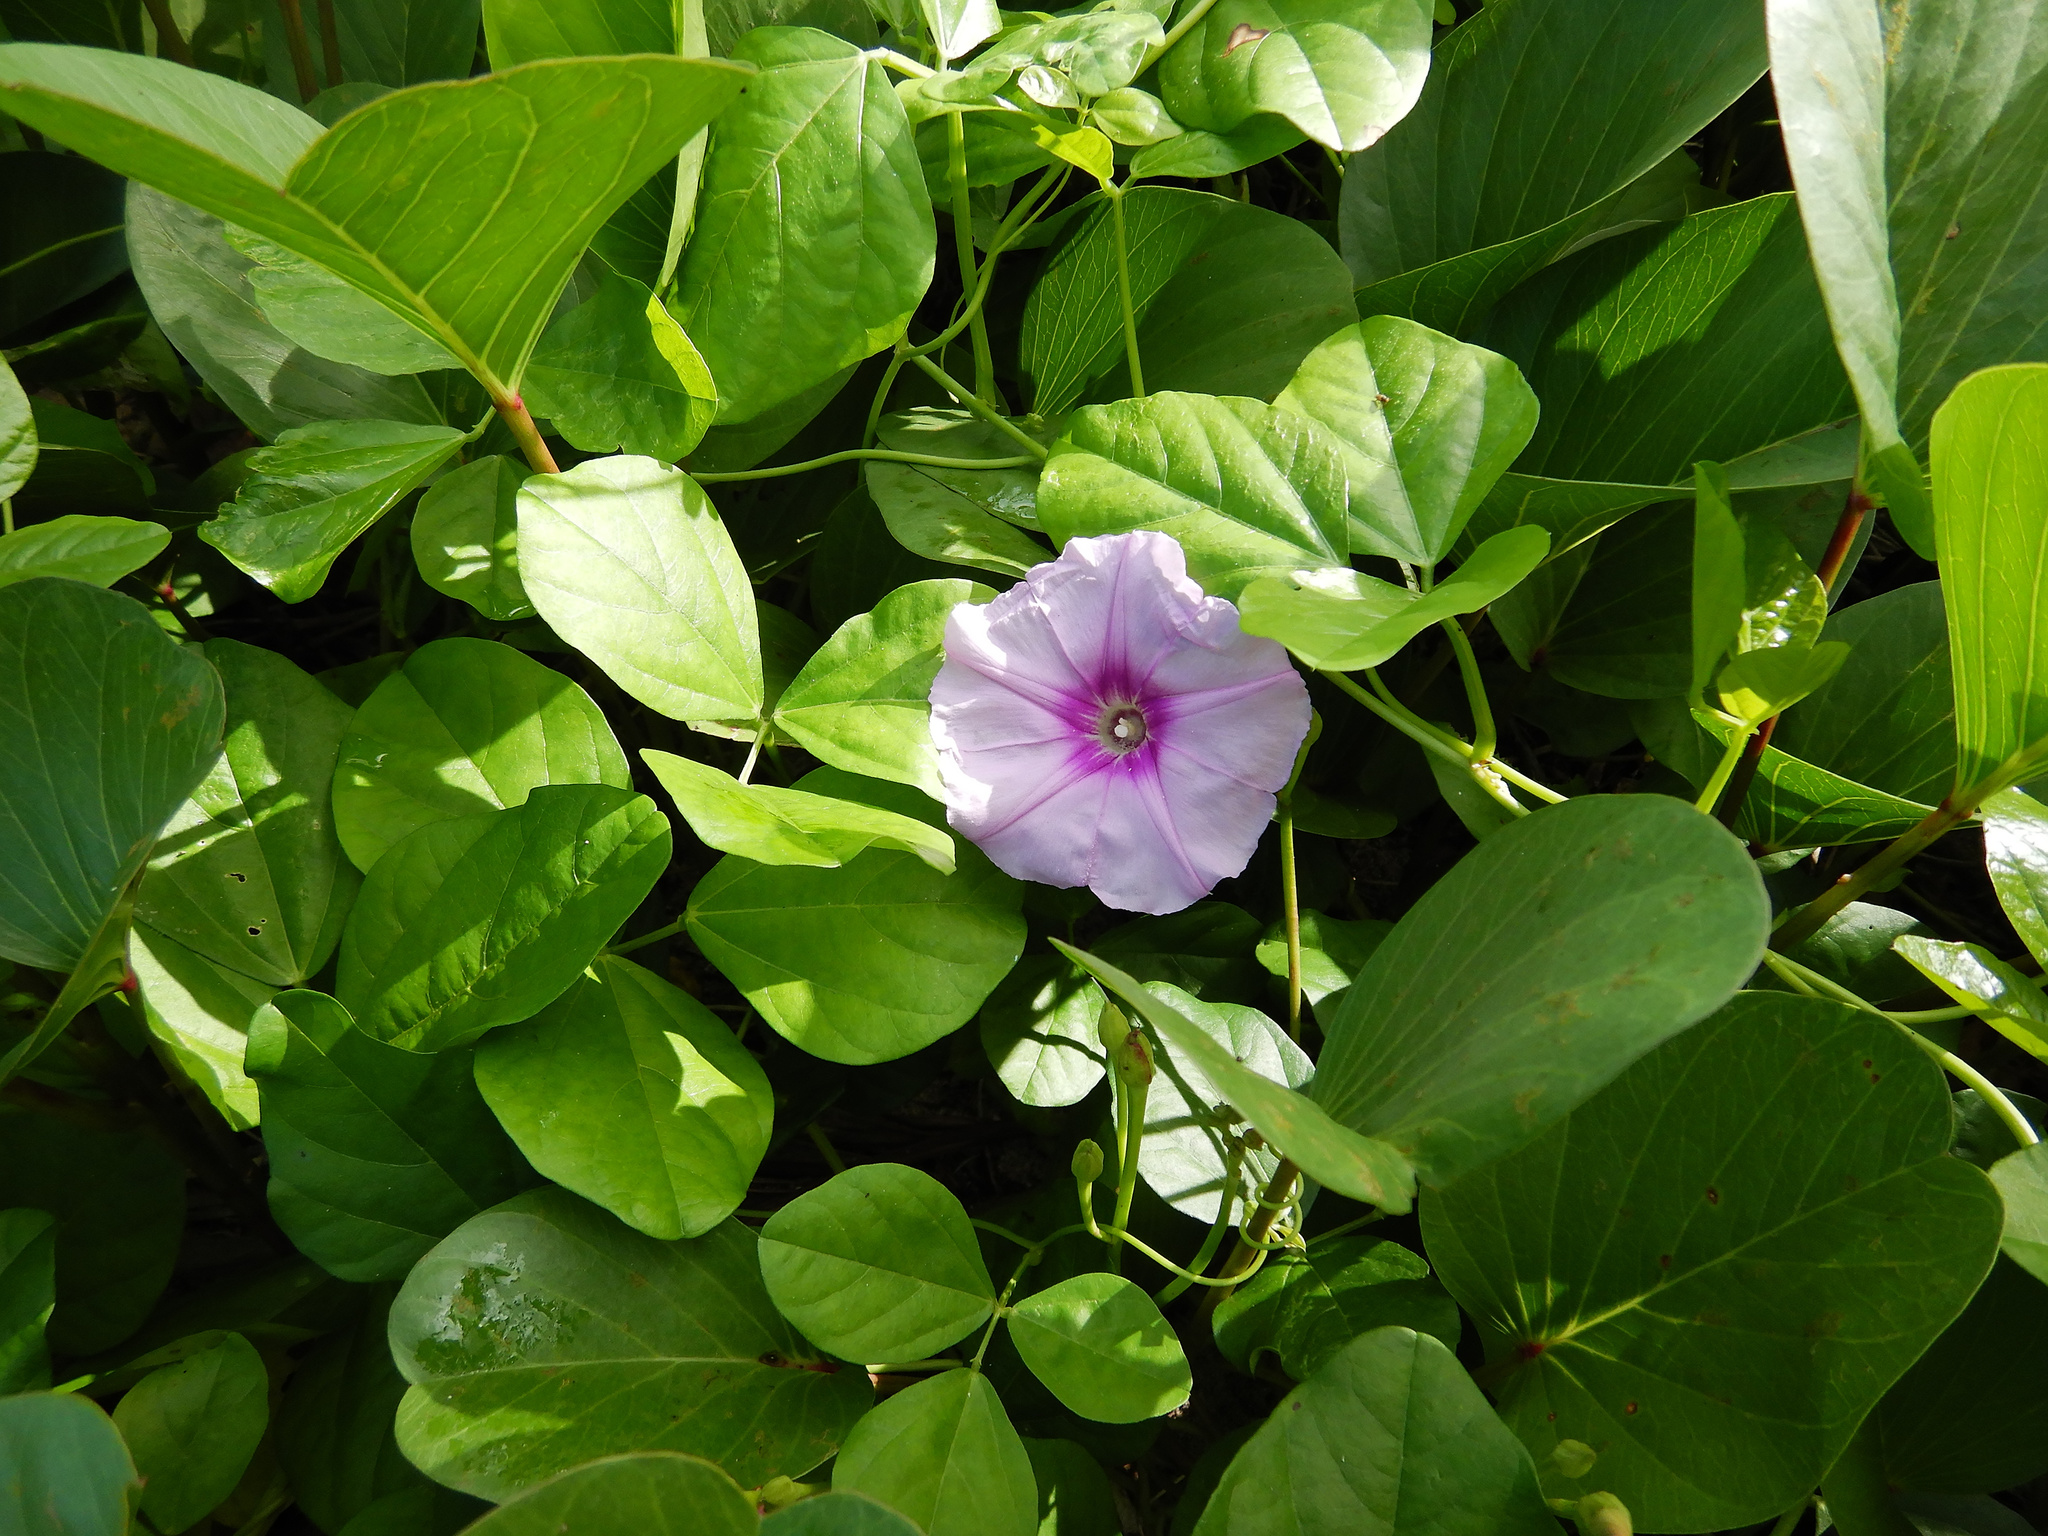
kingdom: Plantae
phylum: Tracheophyta
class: Magnoliopsida
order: Solanales
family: Convolvulaceae
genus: Ipomoea
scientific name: Ipomoea pes-caprae
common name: Beach morning glory
